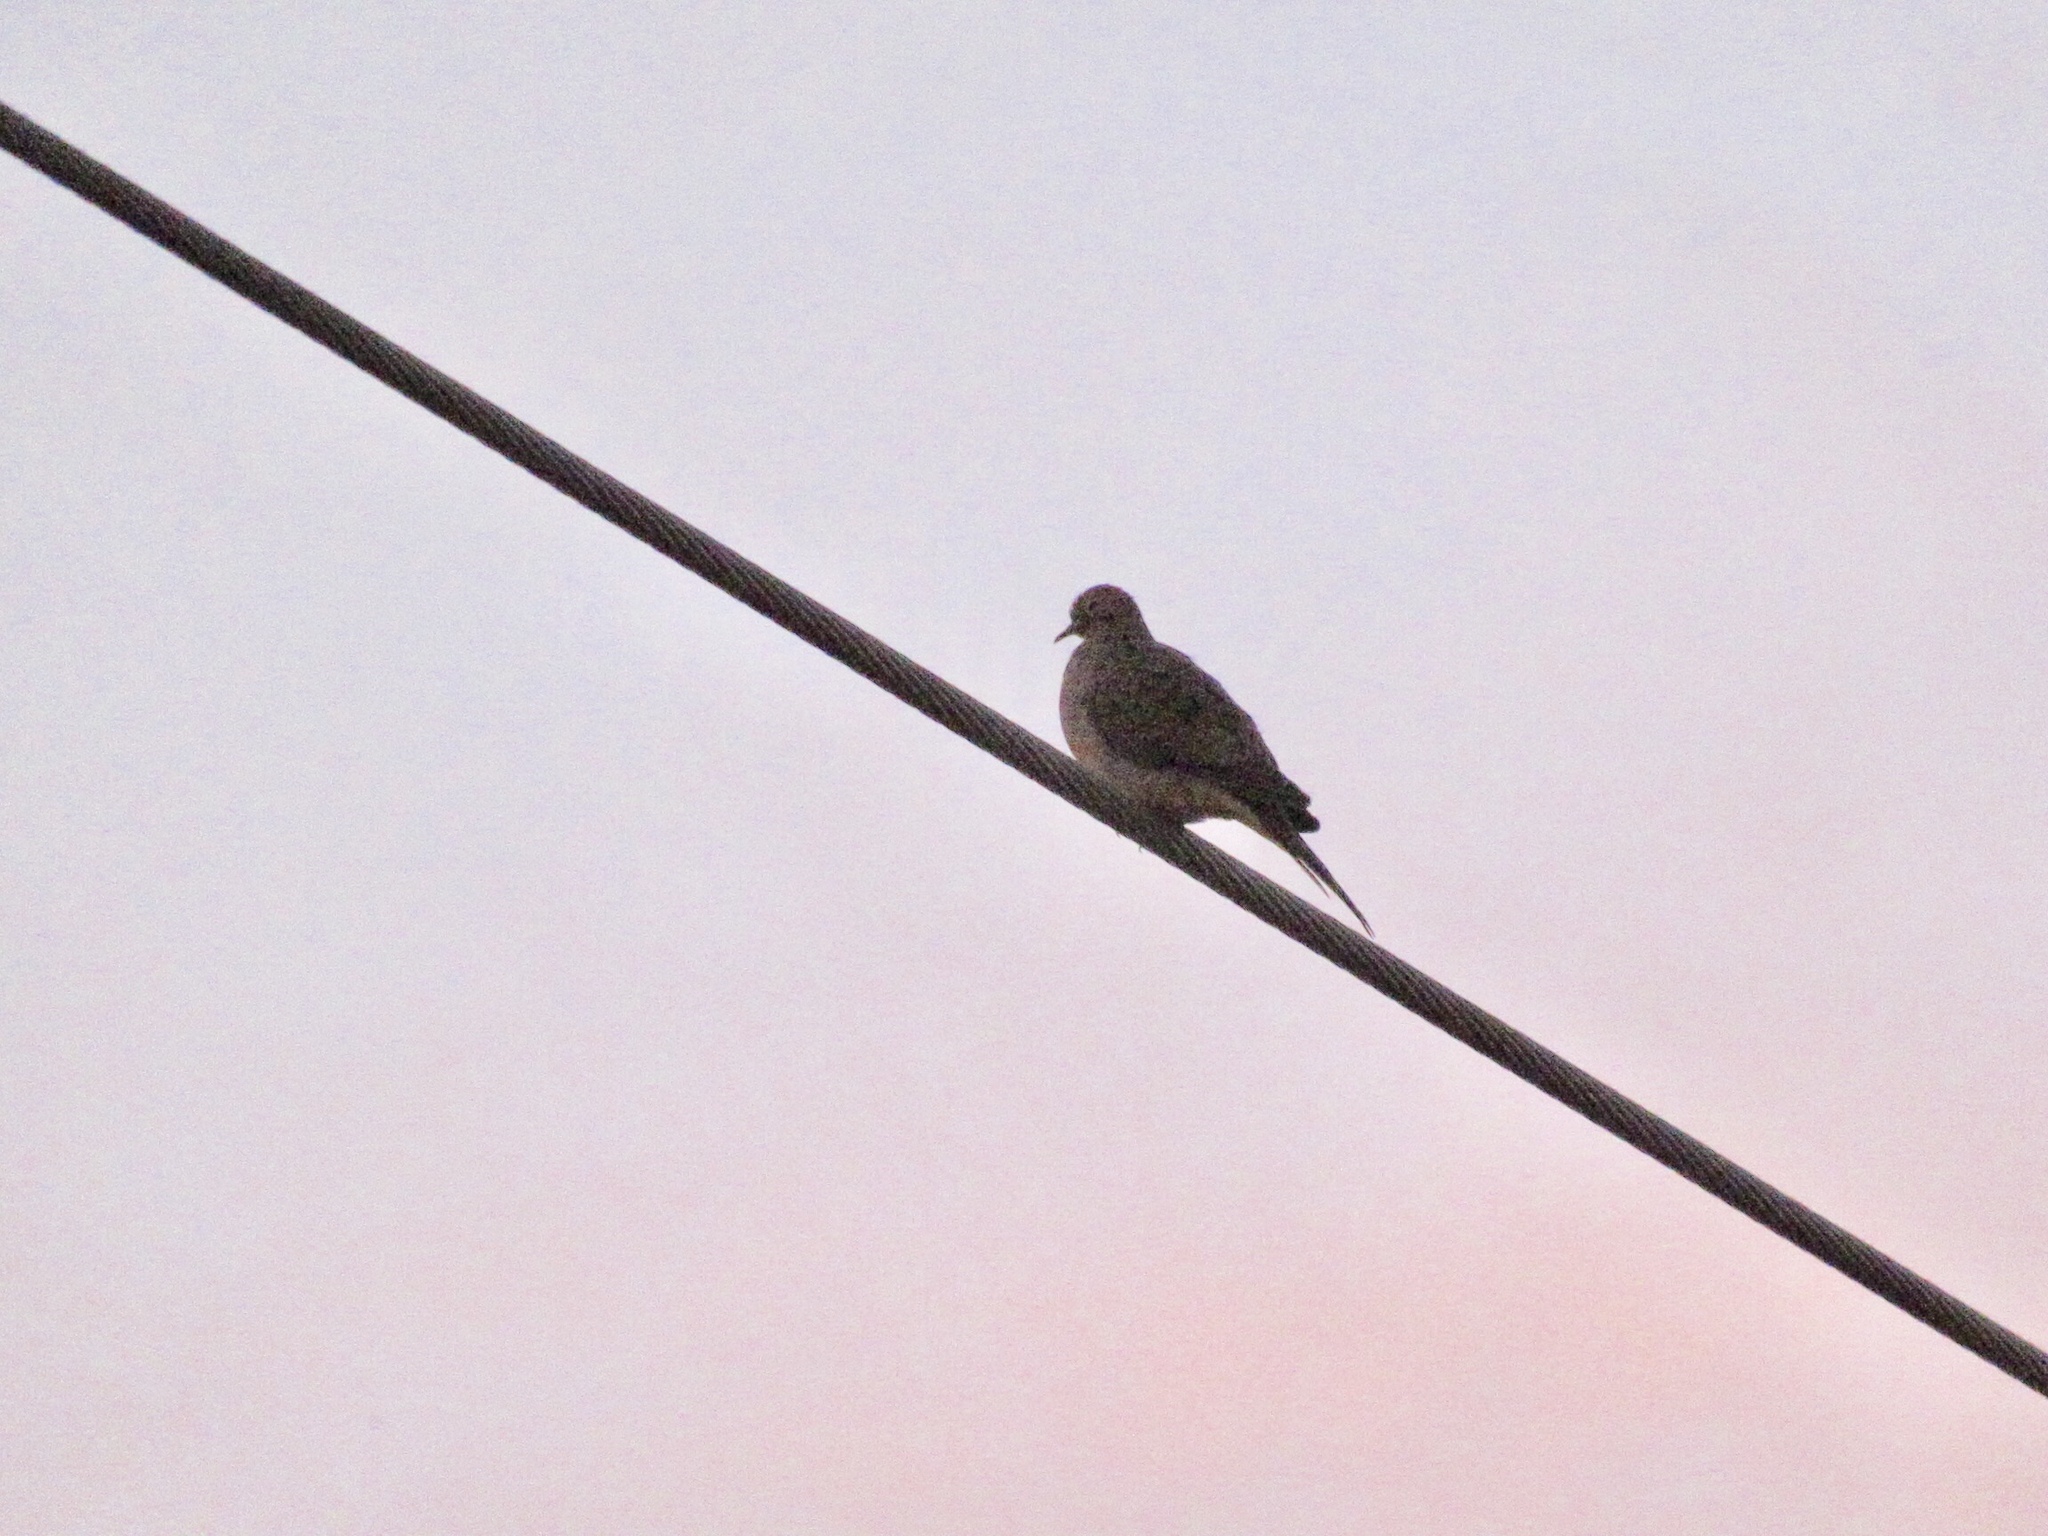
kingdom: Animalia
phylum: Chordata
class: Aves
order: Columbiformes
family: Columbidae
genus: Zenaida
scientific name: Zenaida macroura
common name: Mourning dove
